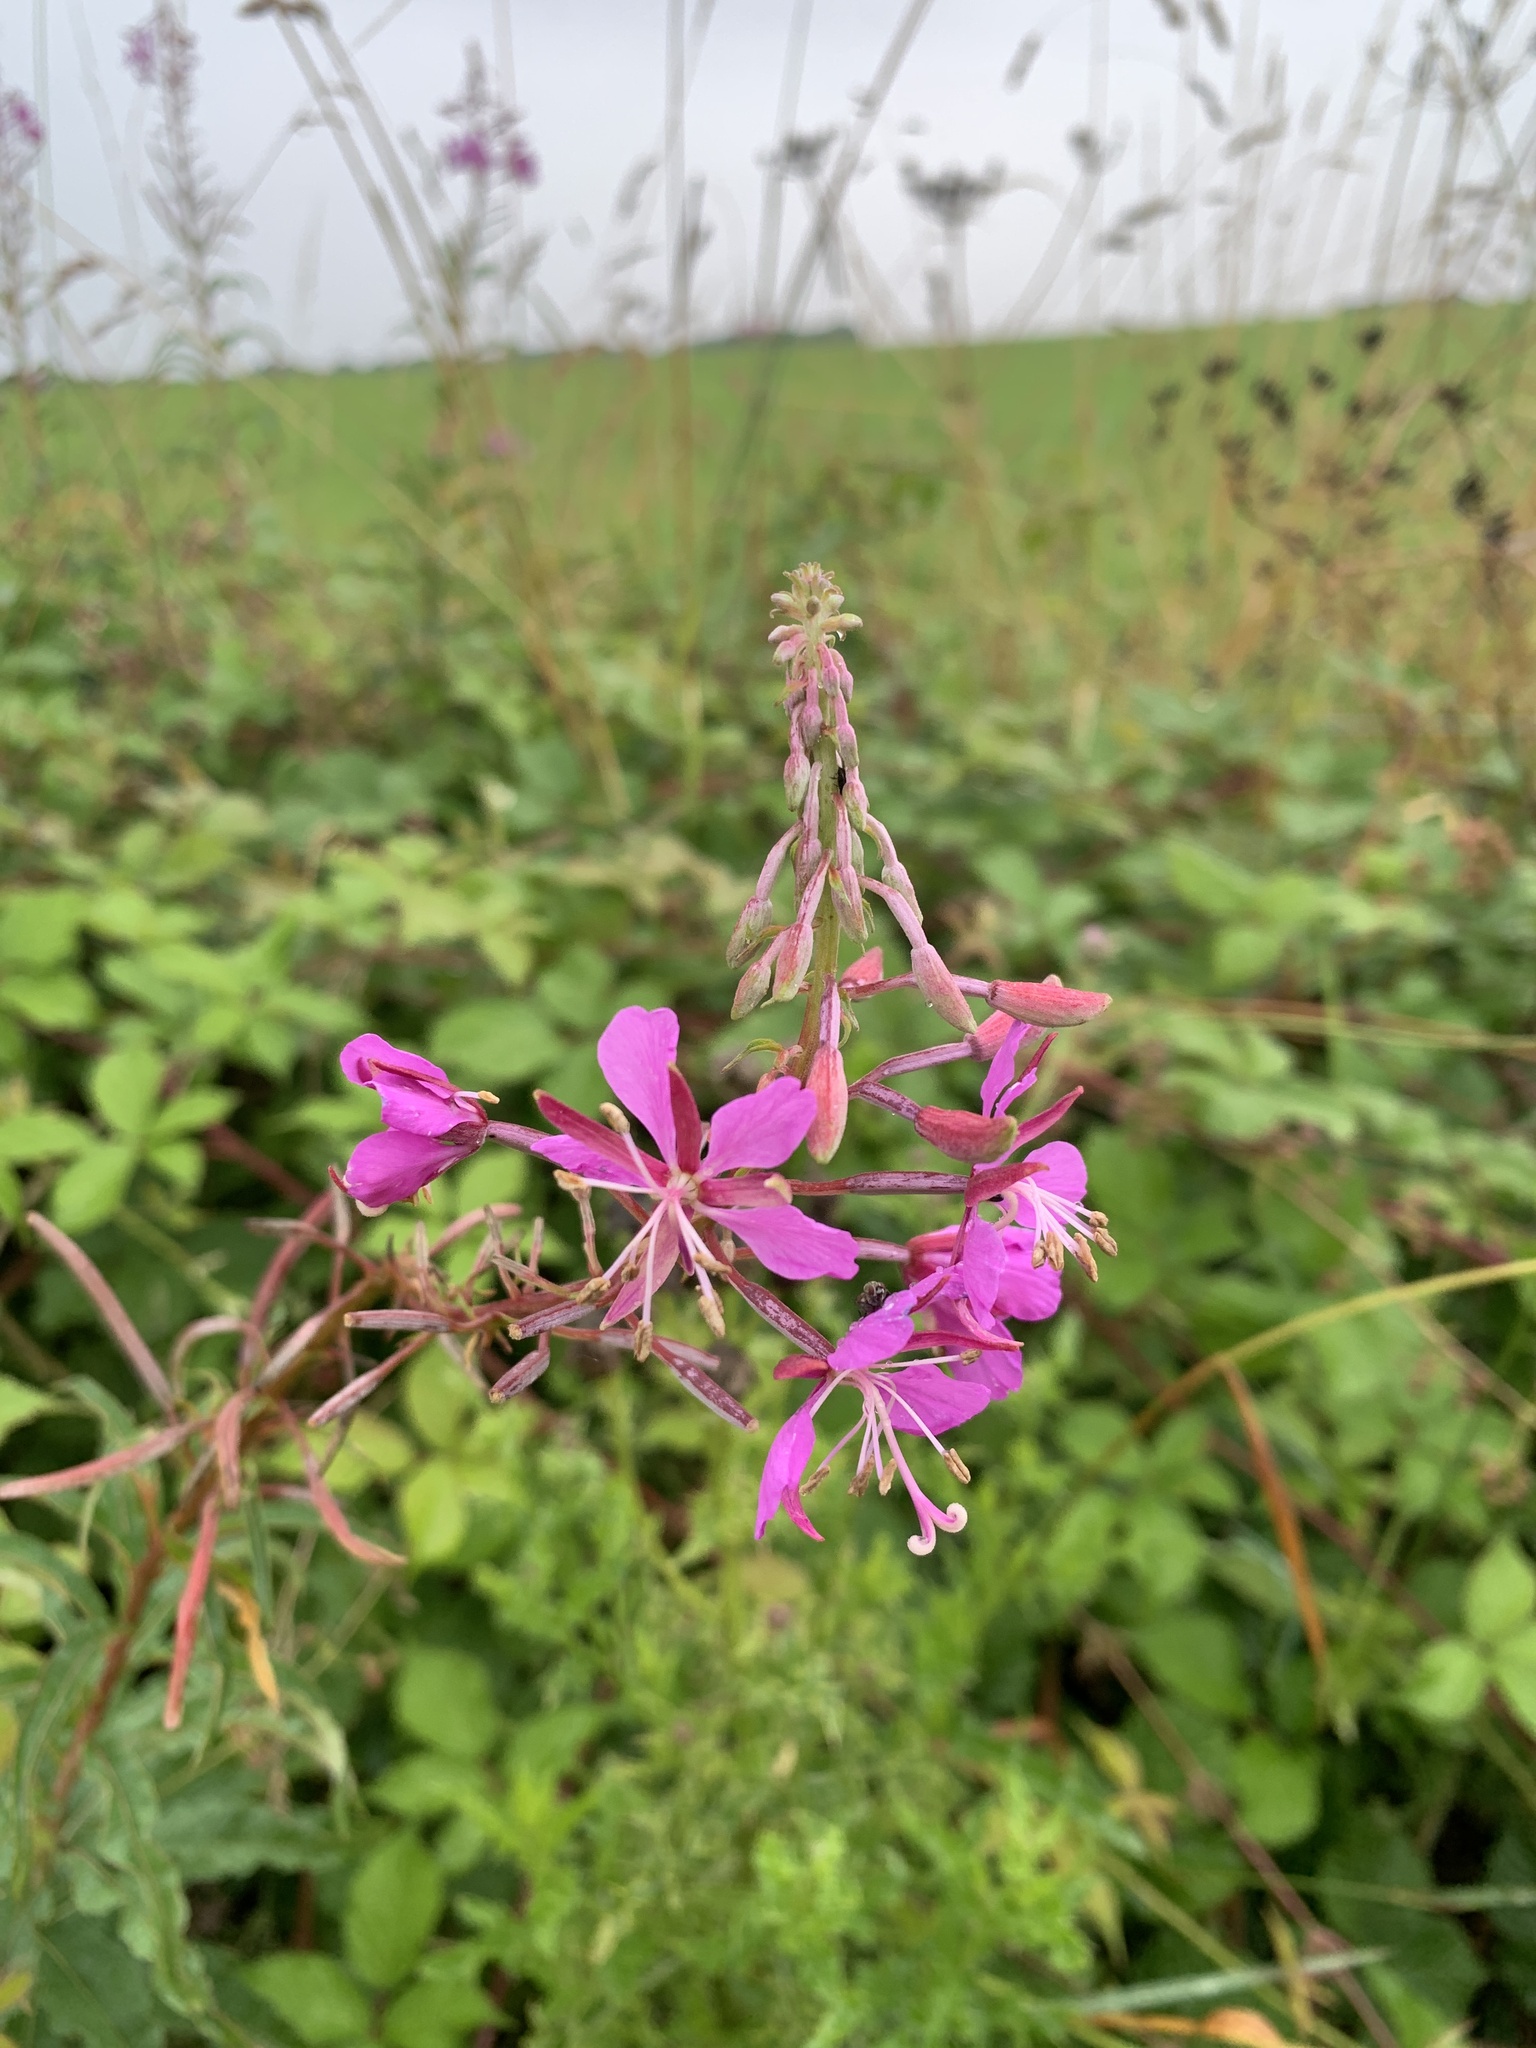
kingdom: Plantae
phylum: Tracheophyta
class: Magnoliopsida
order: Myrtales
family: Onagraceae
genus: Chamaenerion
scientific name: Chamaenerion angustifolium
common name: Fireweed
